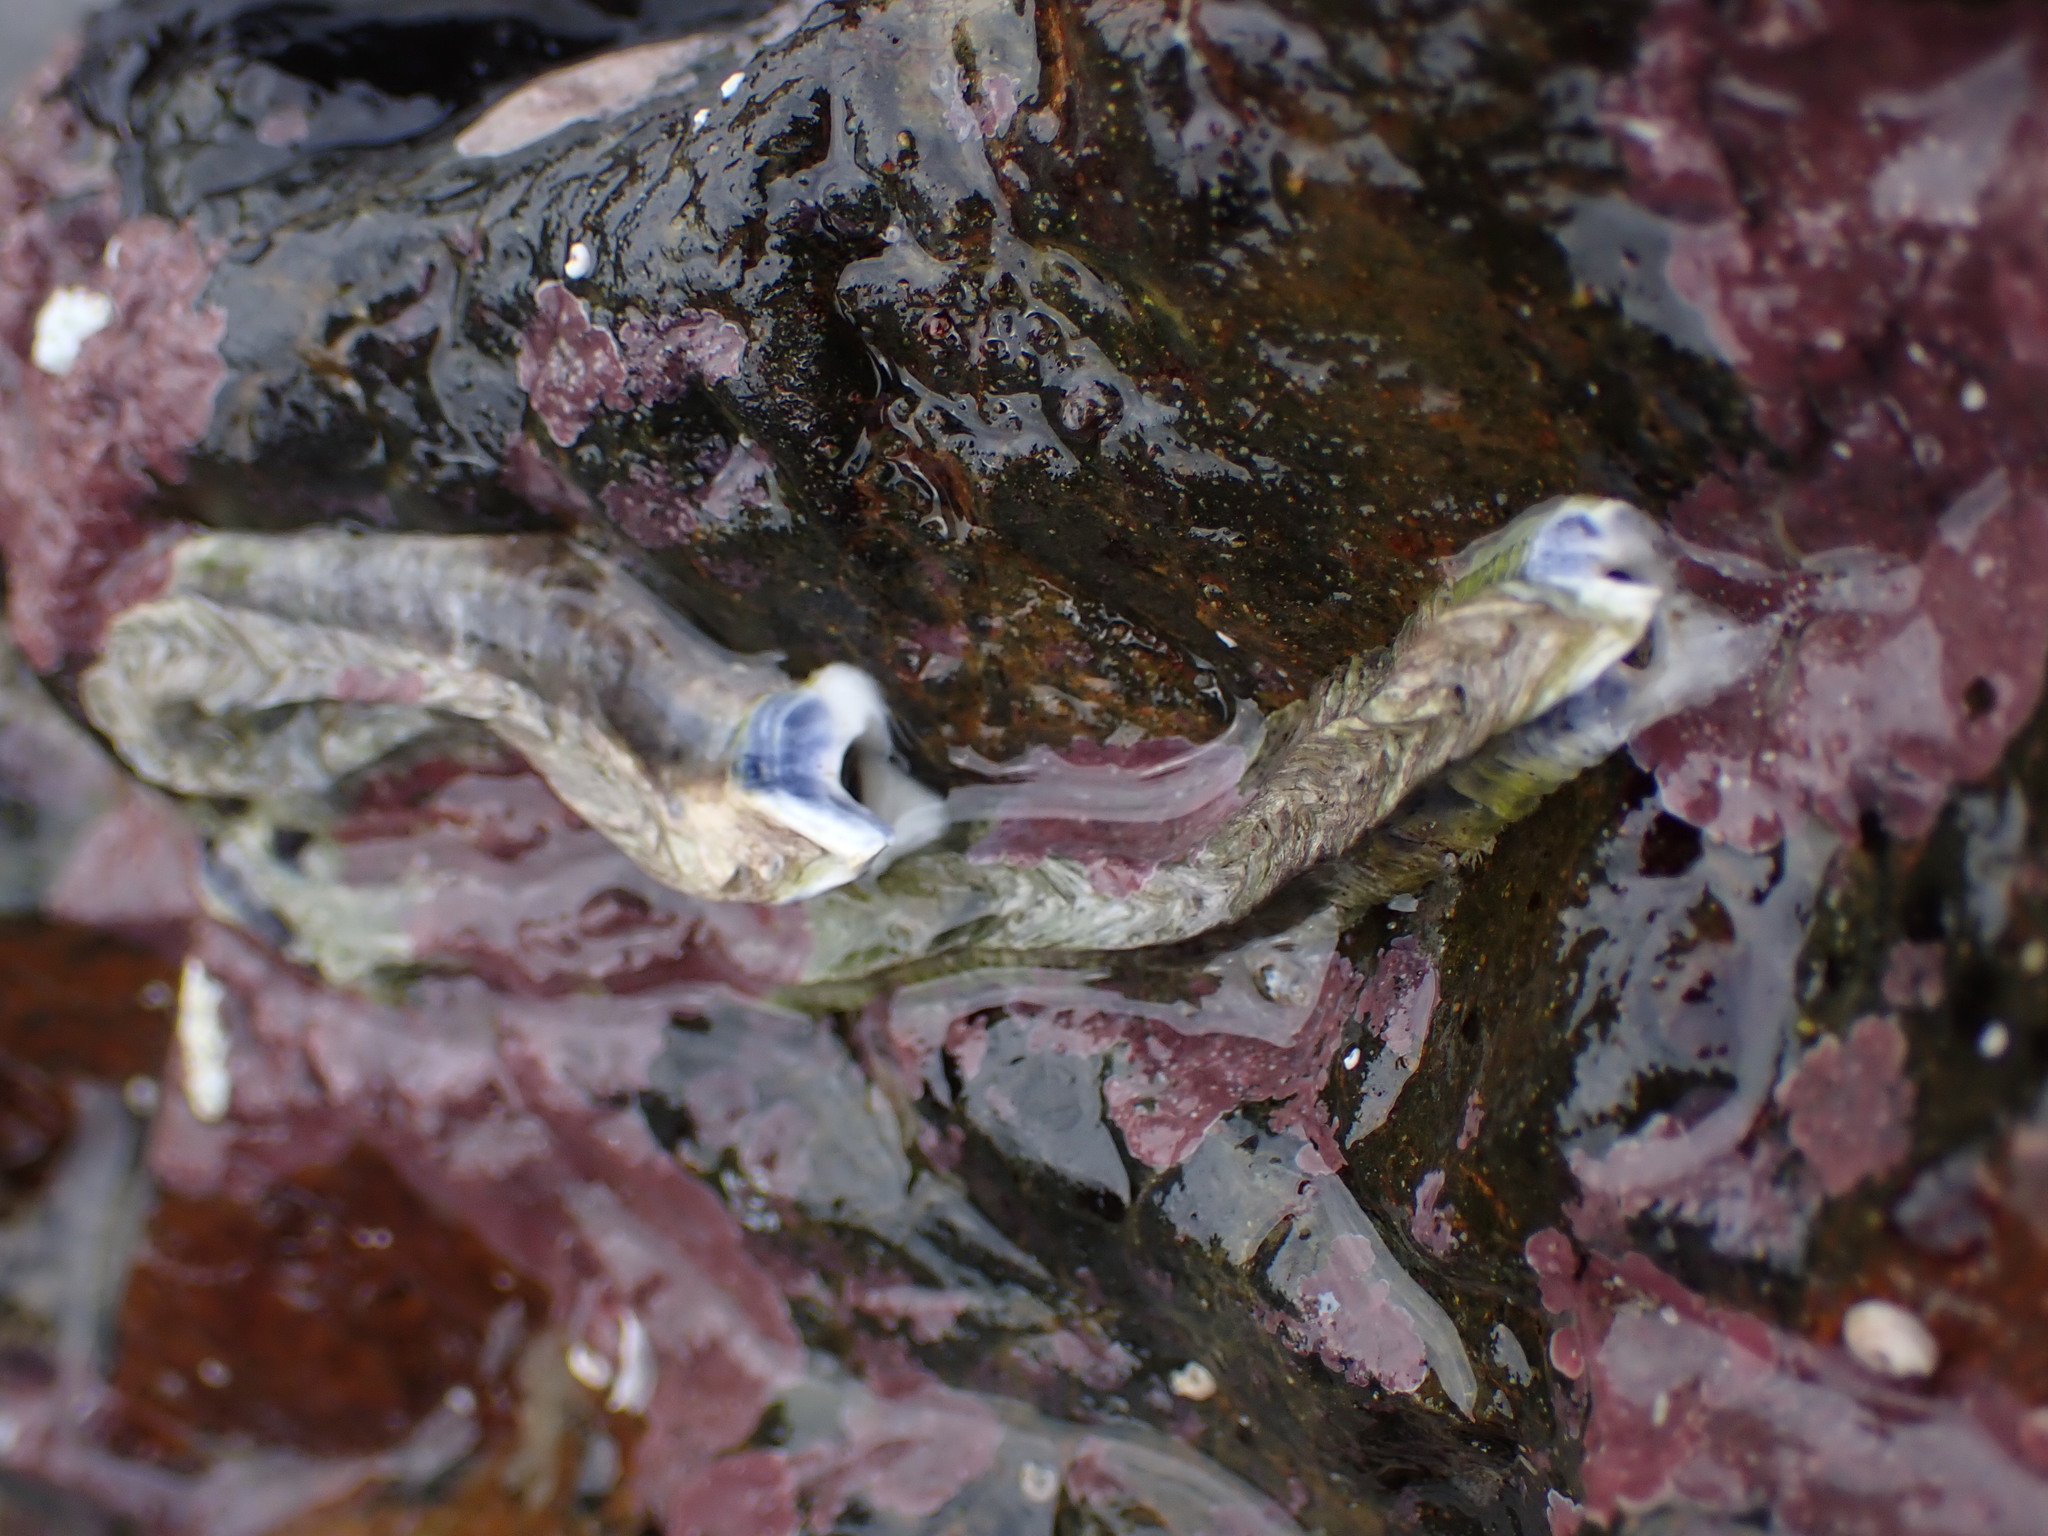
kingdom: Animalia
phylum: Annelida
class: Polychaeta
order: Sabellida
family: Serpulidae
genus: Spirobranchus
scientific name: Spirobranchus cariniferus
